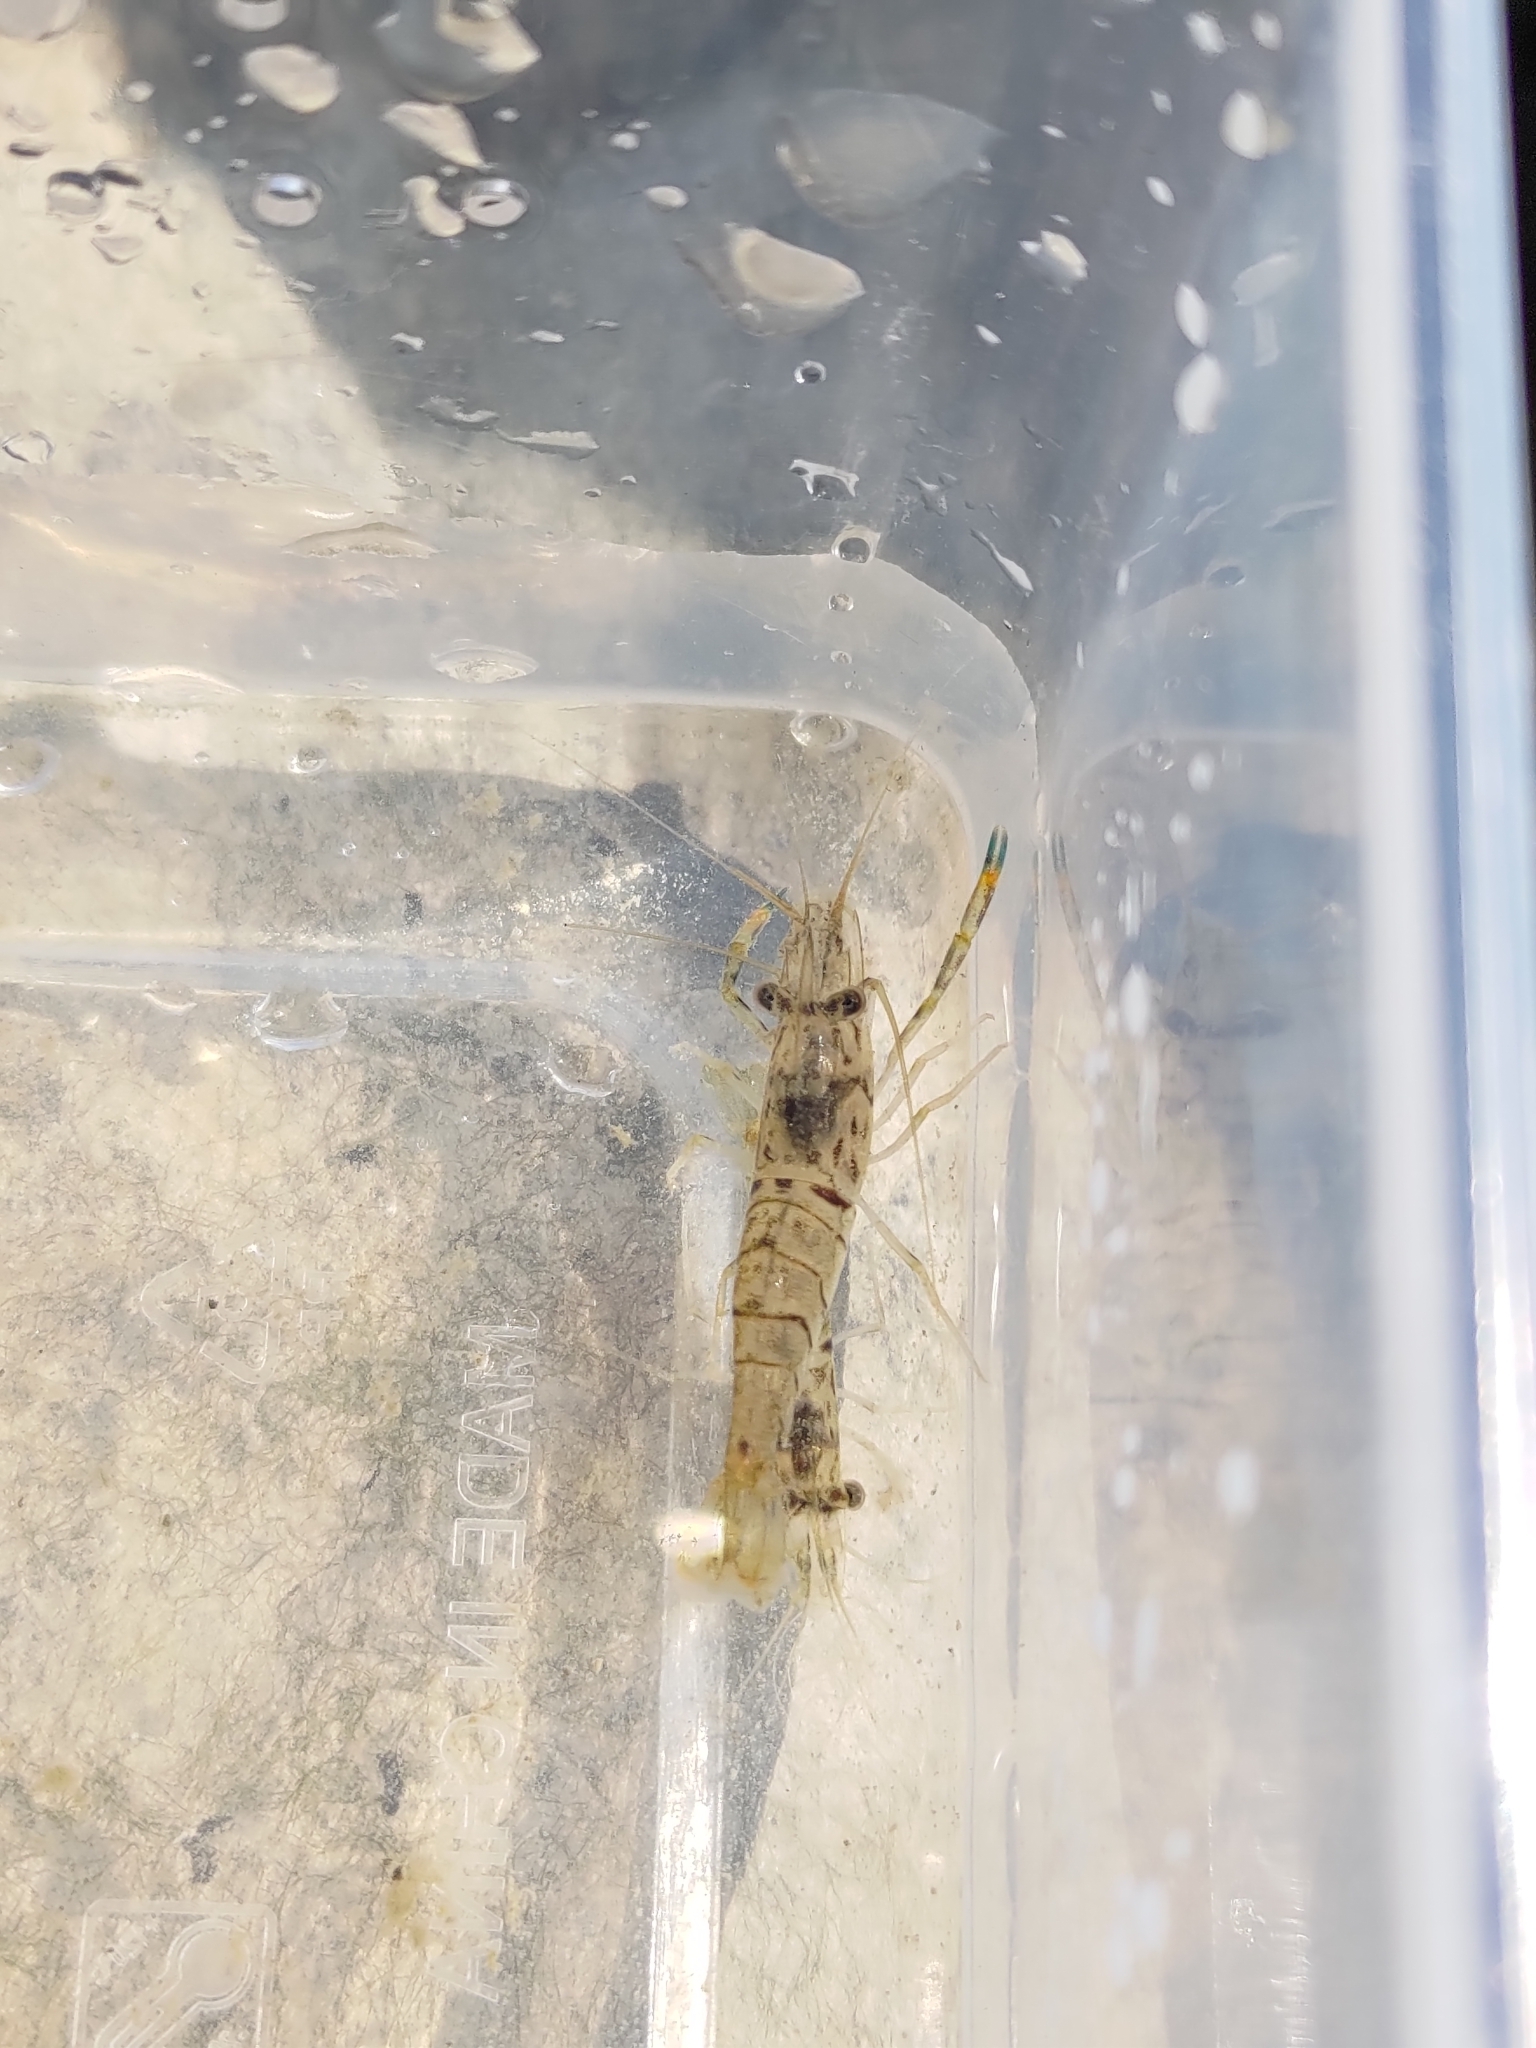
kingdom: Animalia
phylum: Arthropoda
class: Malacostraca
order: Decapoda
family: Palaemonidae
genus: Macrobrachium
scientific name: Macrobrachium asperulum
